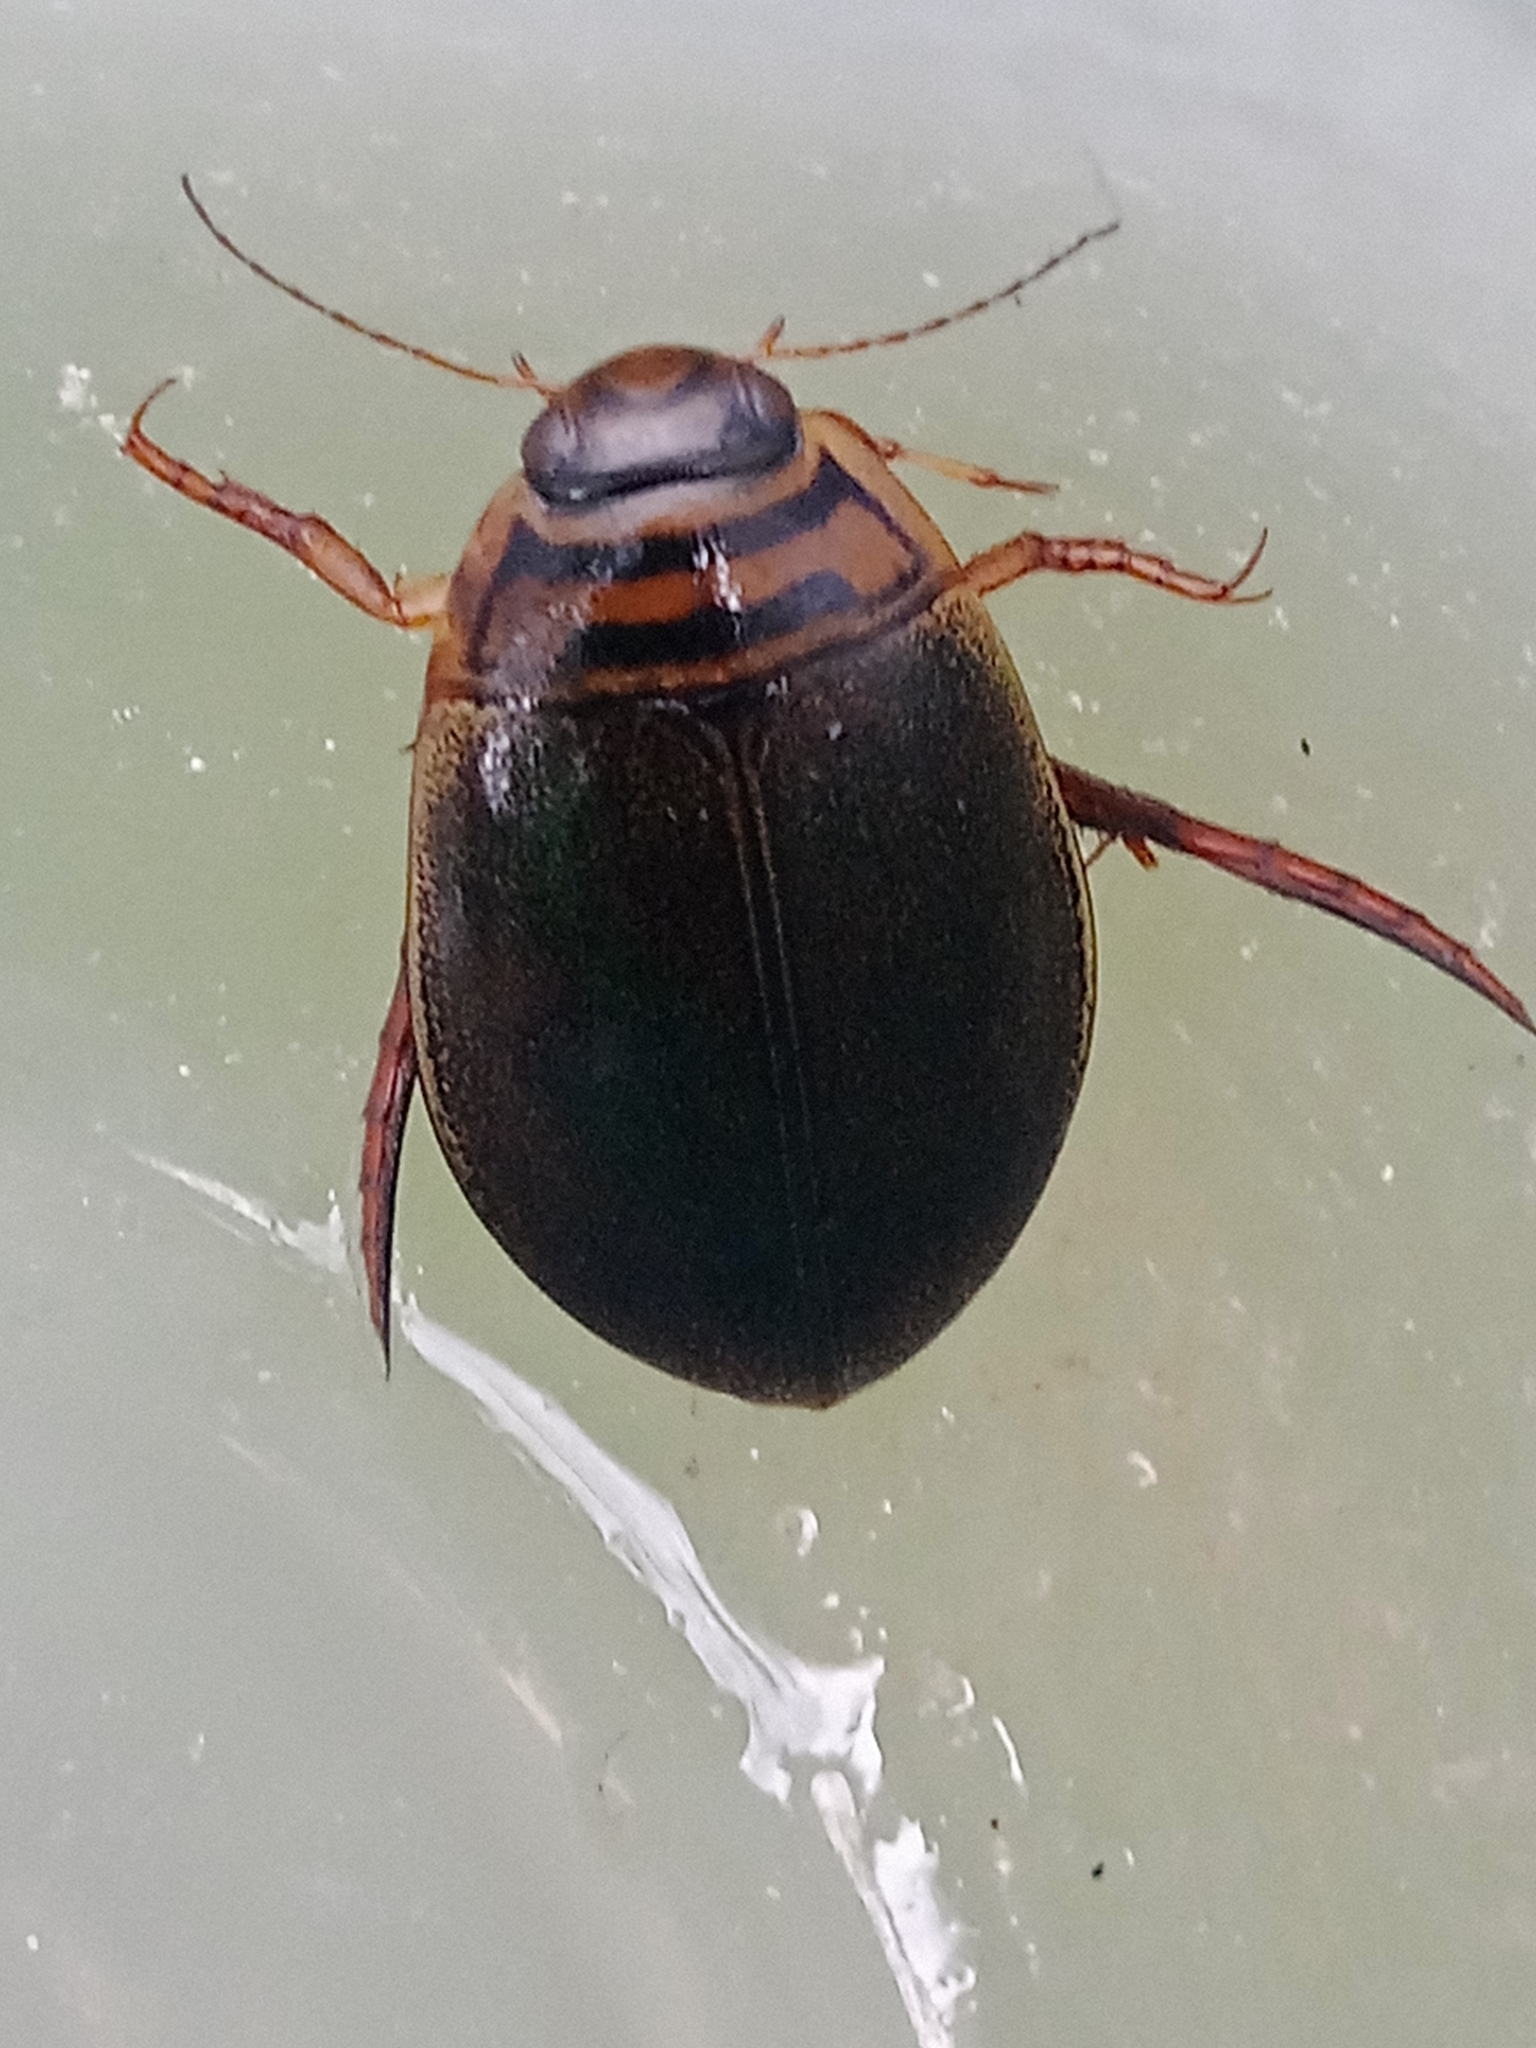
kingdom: Animalia
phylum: Arthropoda
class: Insecta
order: Coleoptera
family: Dytiscidae
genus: Acilius
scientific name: Acilius canaliculatus
